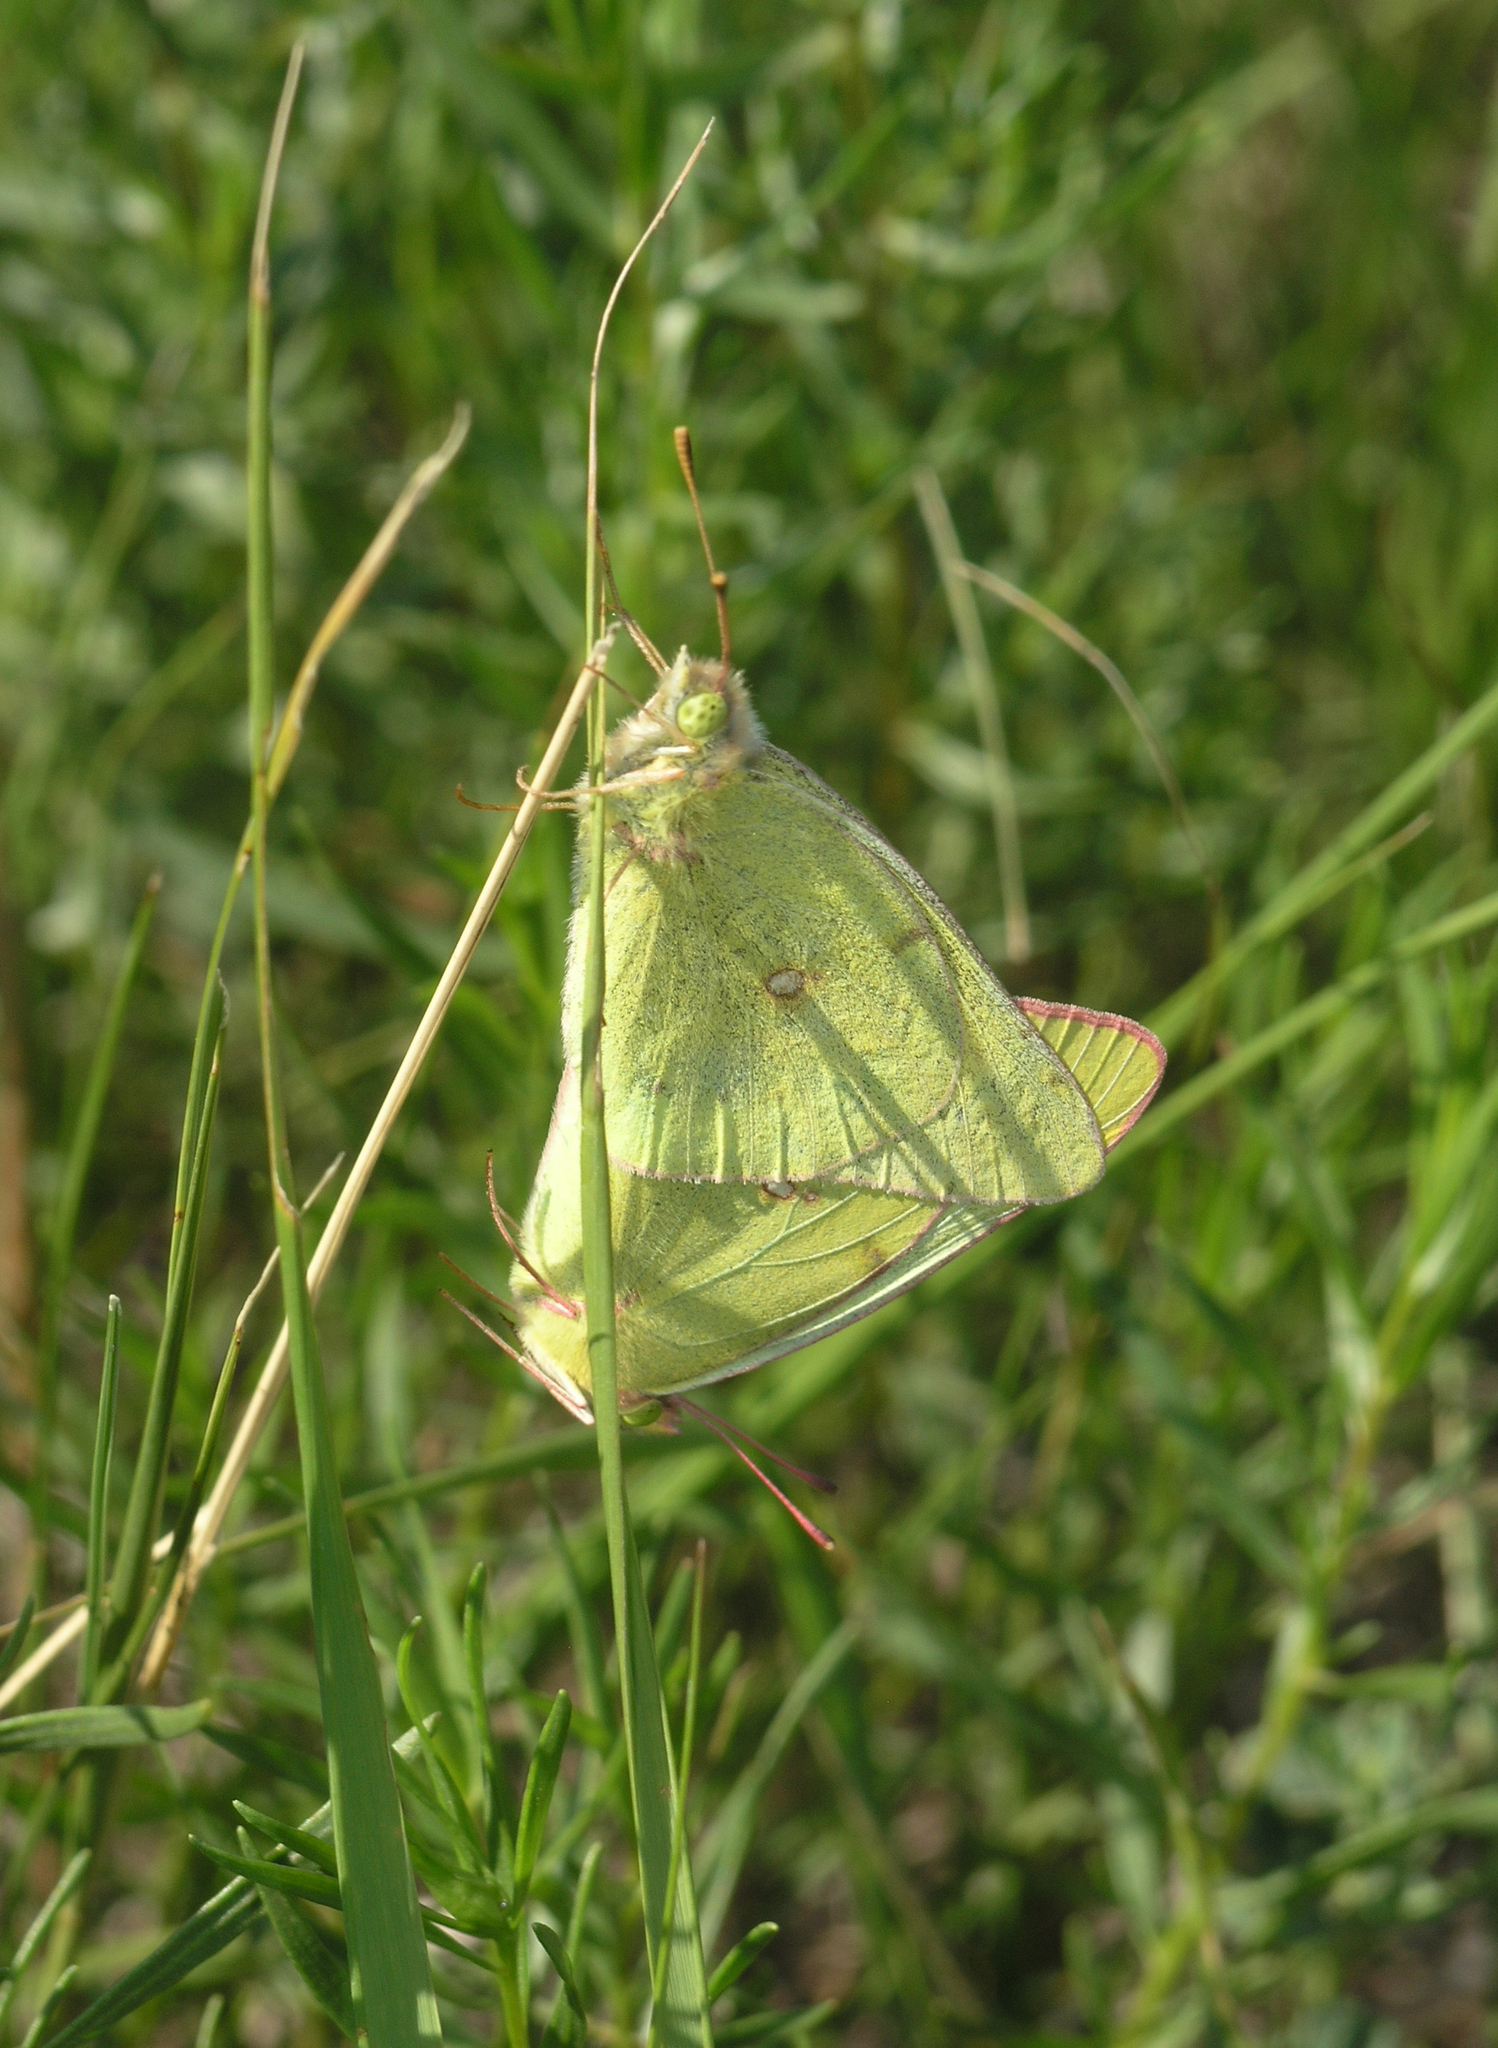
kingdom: Animalia
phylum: Arthropoda
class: Insecta
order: Lepidoptera
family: Pieridae
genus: Colias
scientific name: Colias chrysotheme
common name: Lesser clouded yellow
